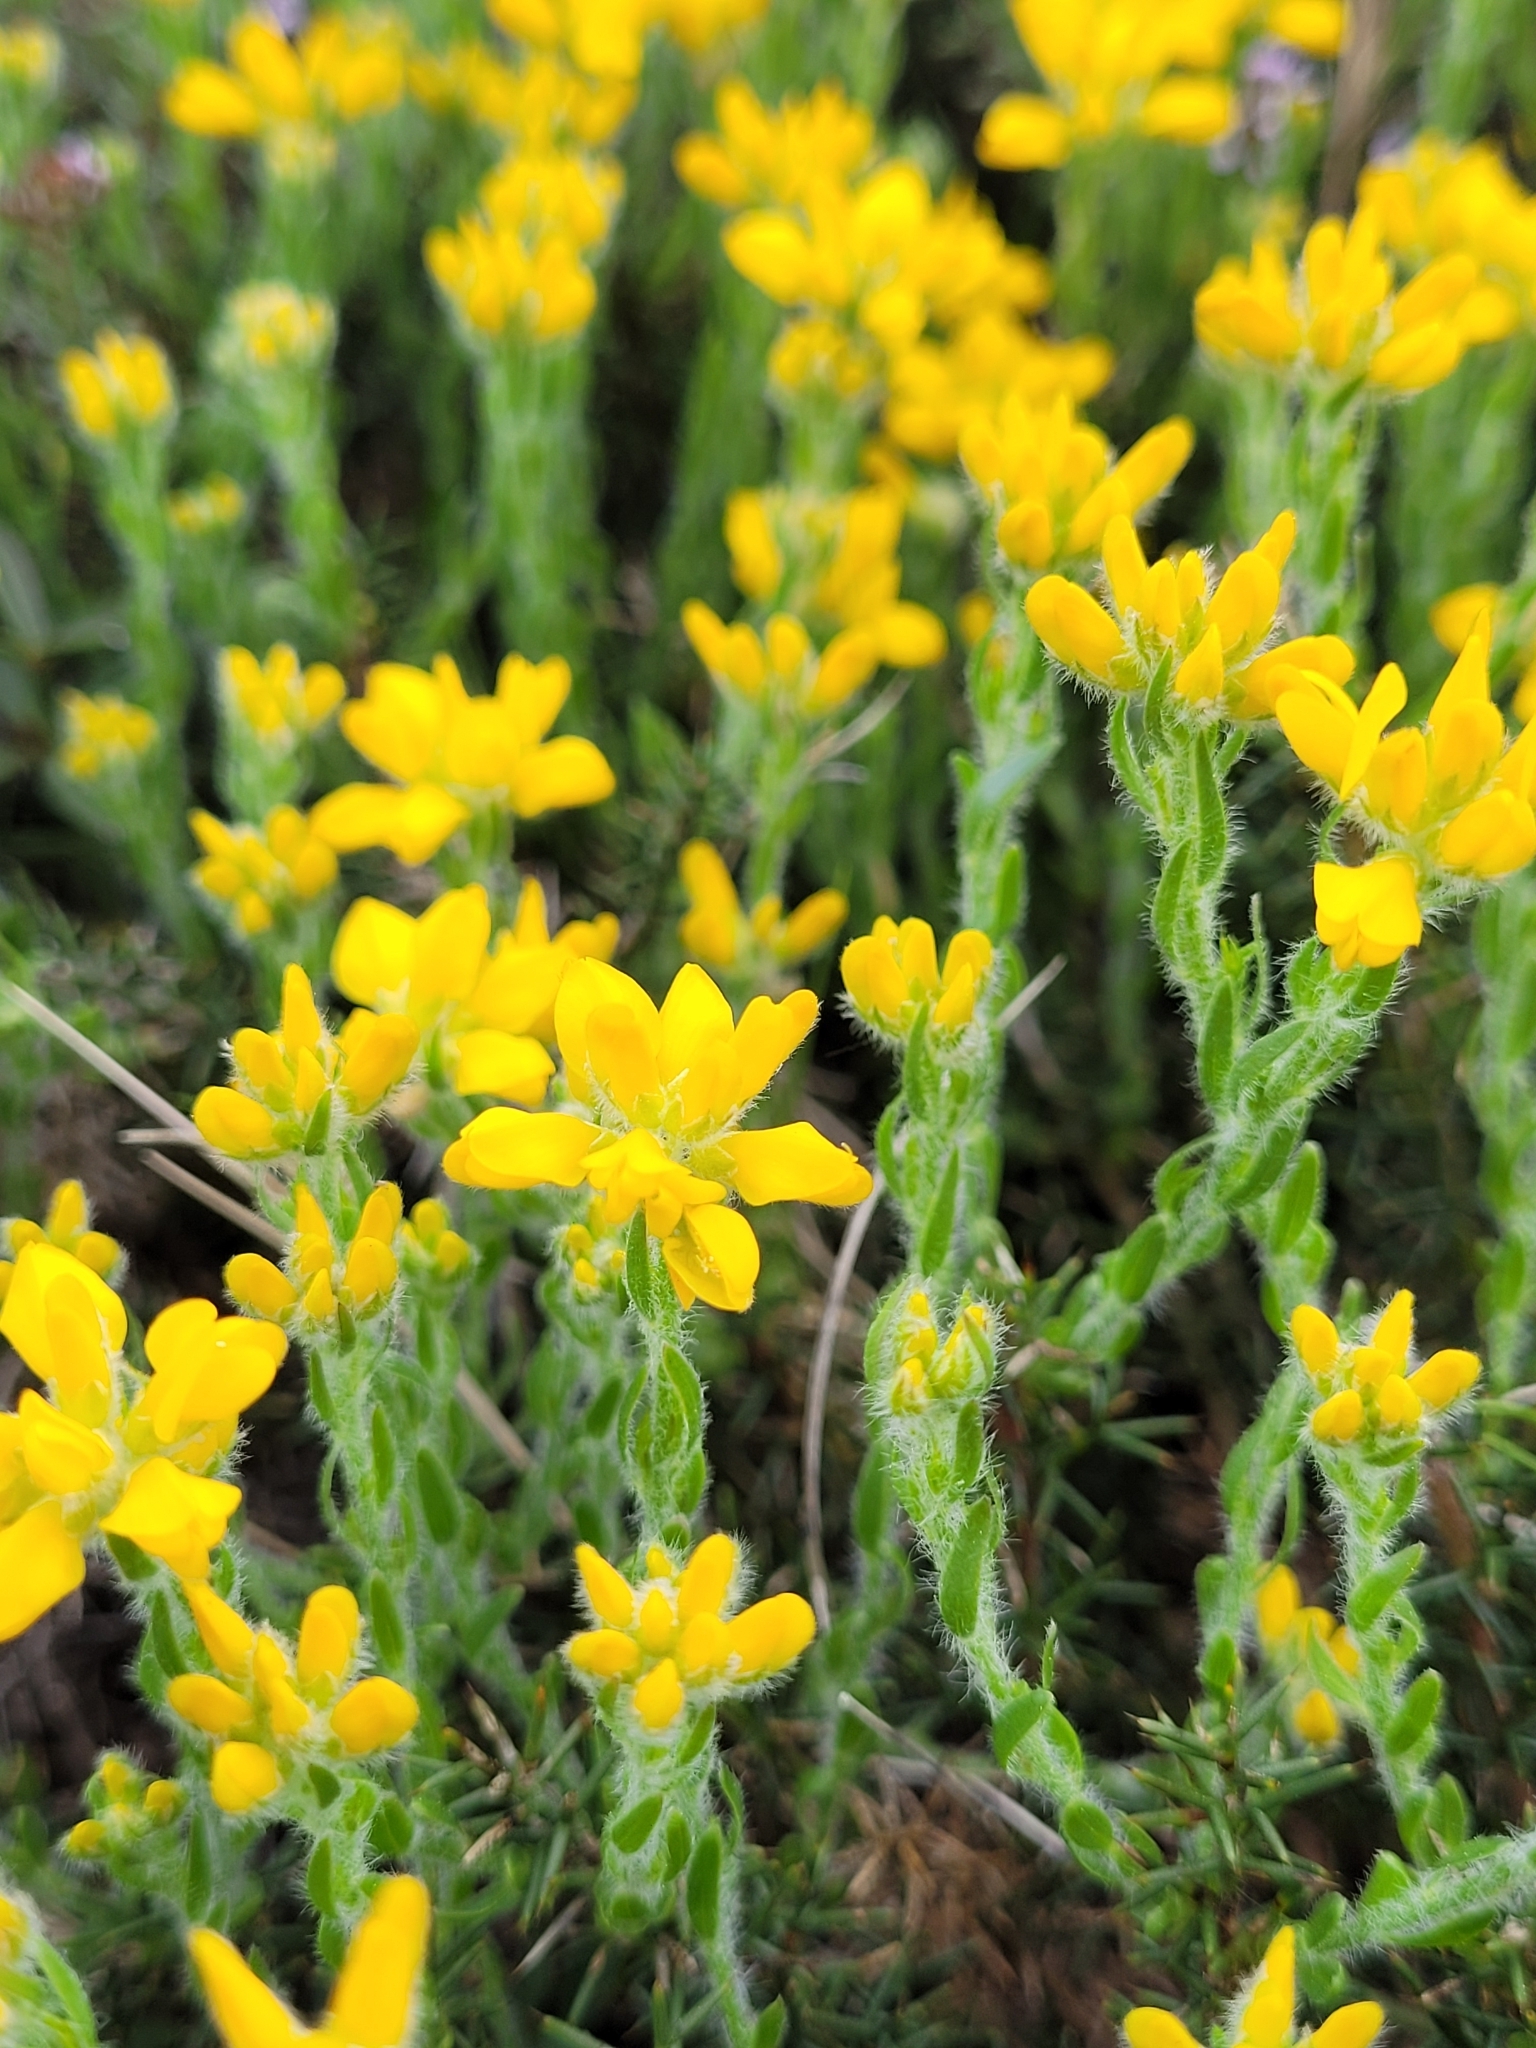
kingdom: Plantae
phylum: Tracheophyta
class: Magnoliopsida
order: Fabales
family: Fabaceae
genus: Genista
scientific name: Genista hispanica
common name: Spanish gorse
